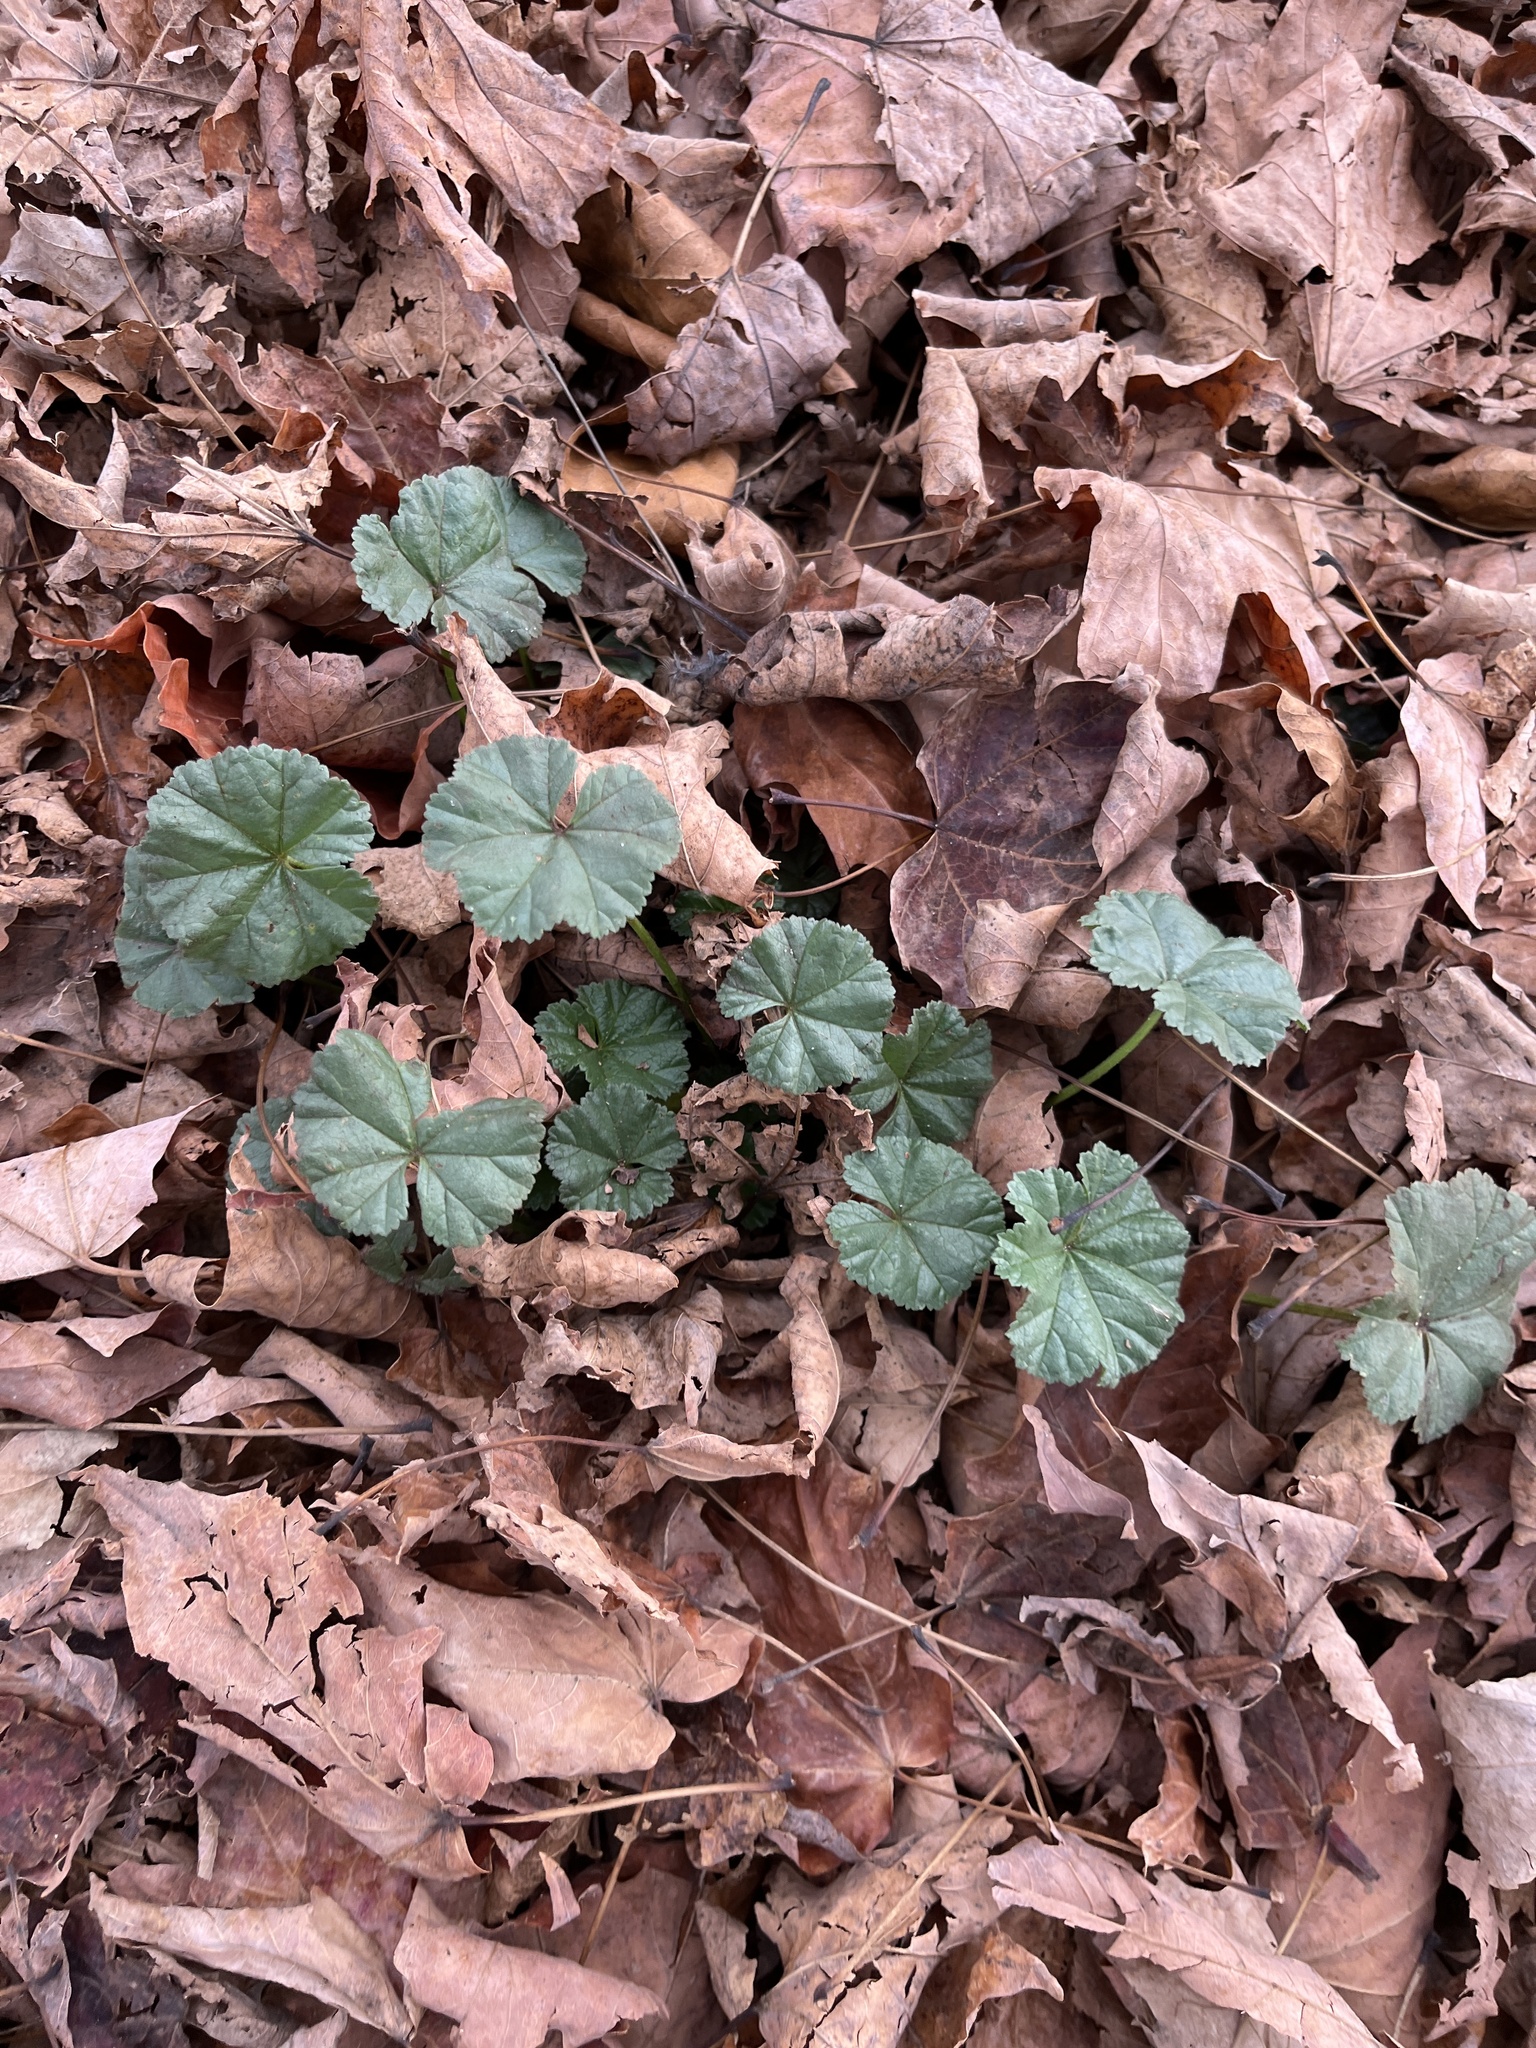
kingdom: Plantae
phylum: Tracheophyta
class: Magnoliopsida
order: Malvales
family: Malvaceae
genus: Malva
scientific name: Malva
